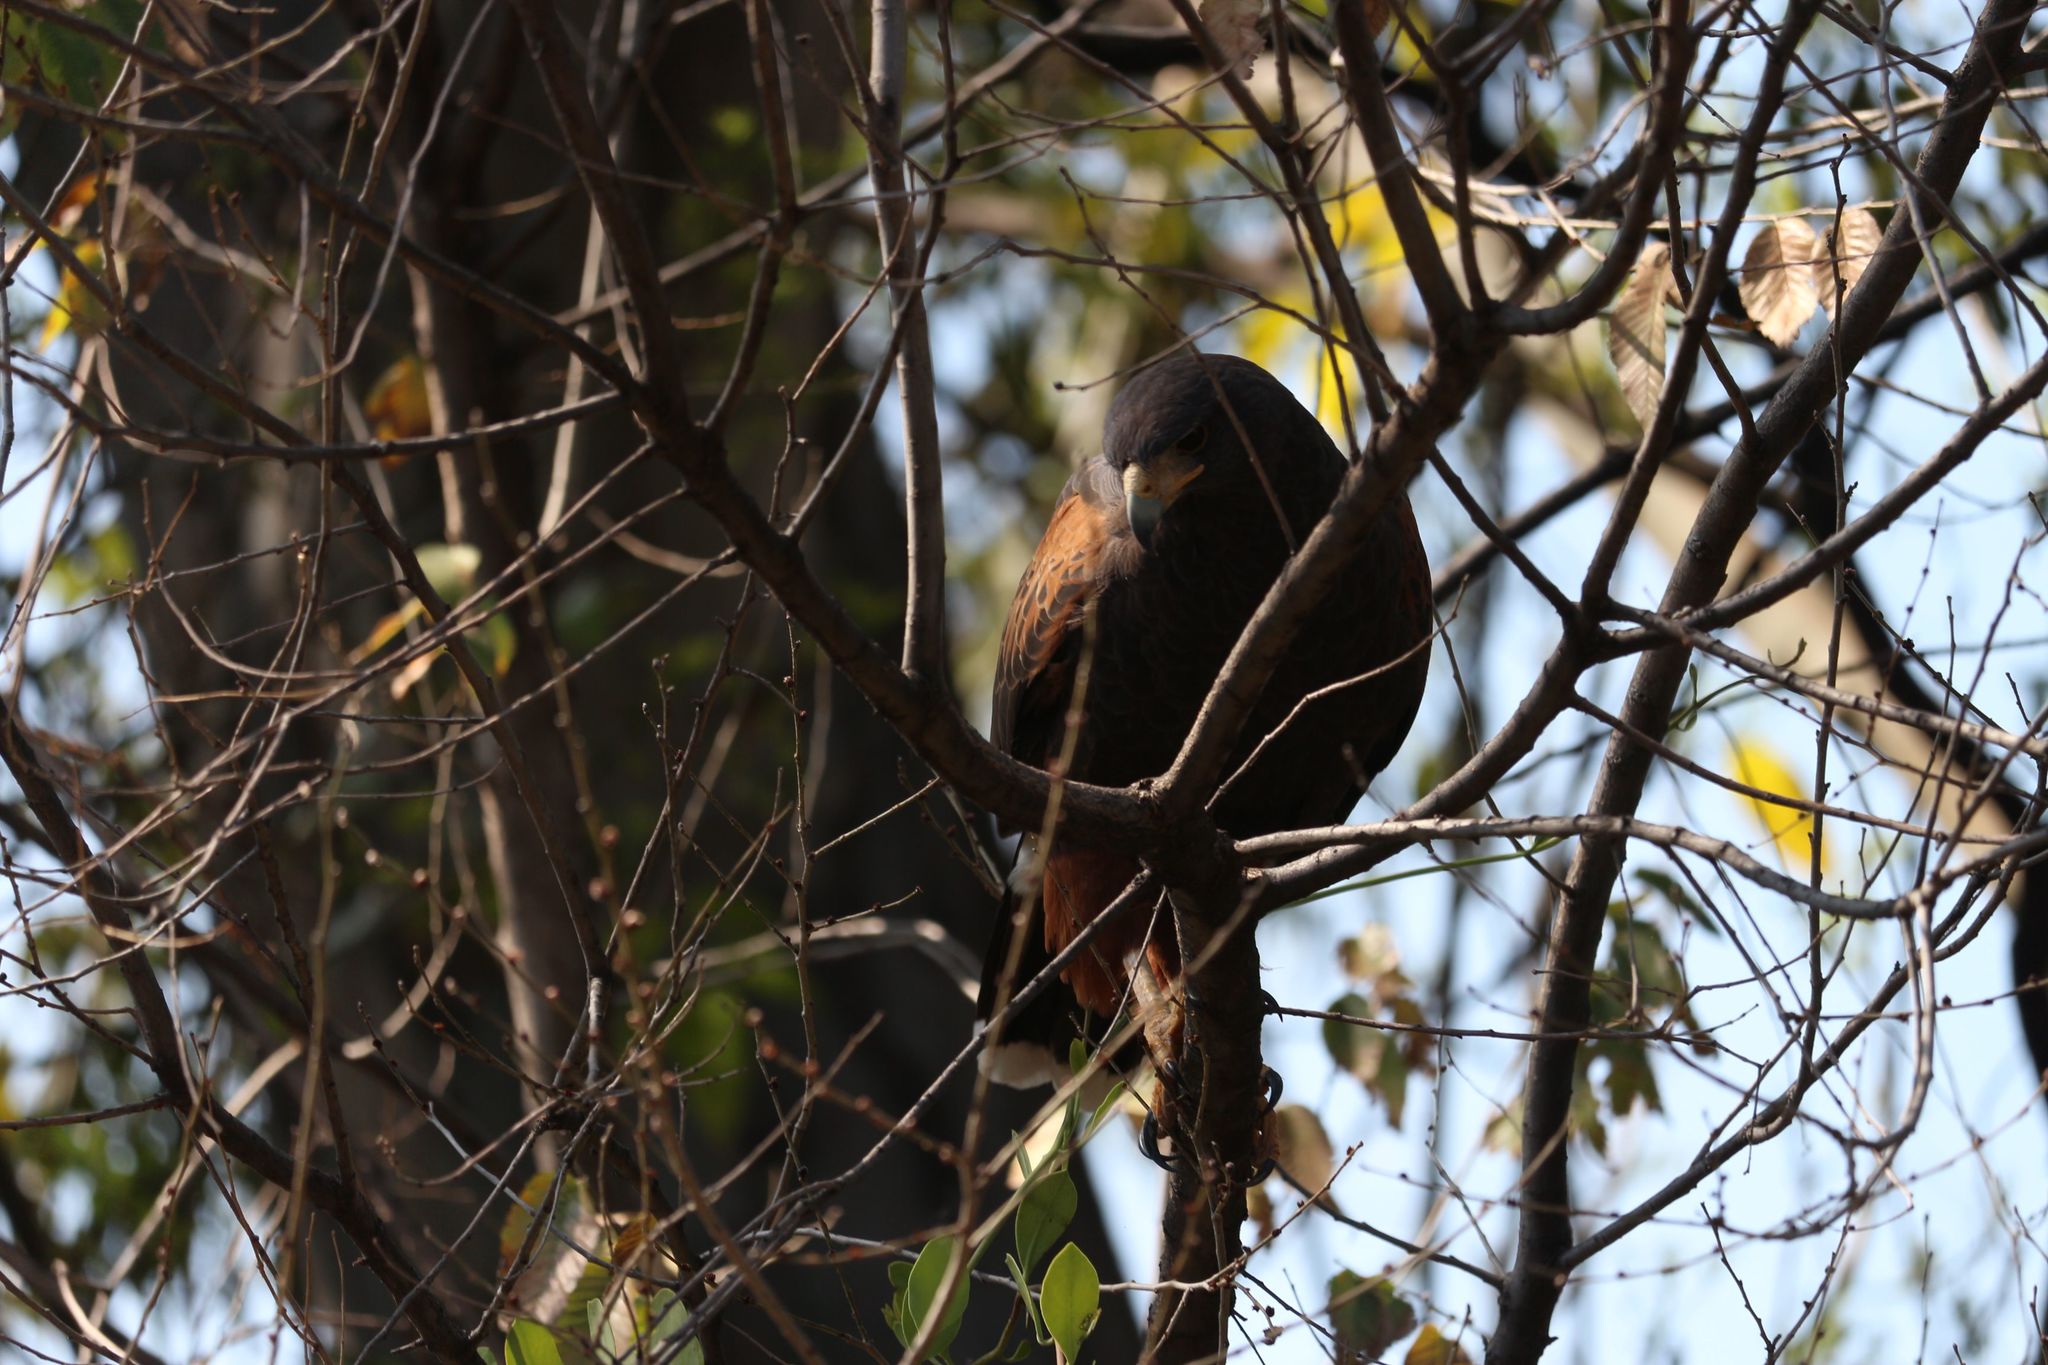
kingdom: Animalia
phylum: Chordata
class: Aves
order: Accipitriformes
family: Accipitridae
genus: Parabuteo
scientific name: Parabuteo unicinctus
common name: Harris's hawk
